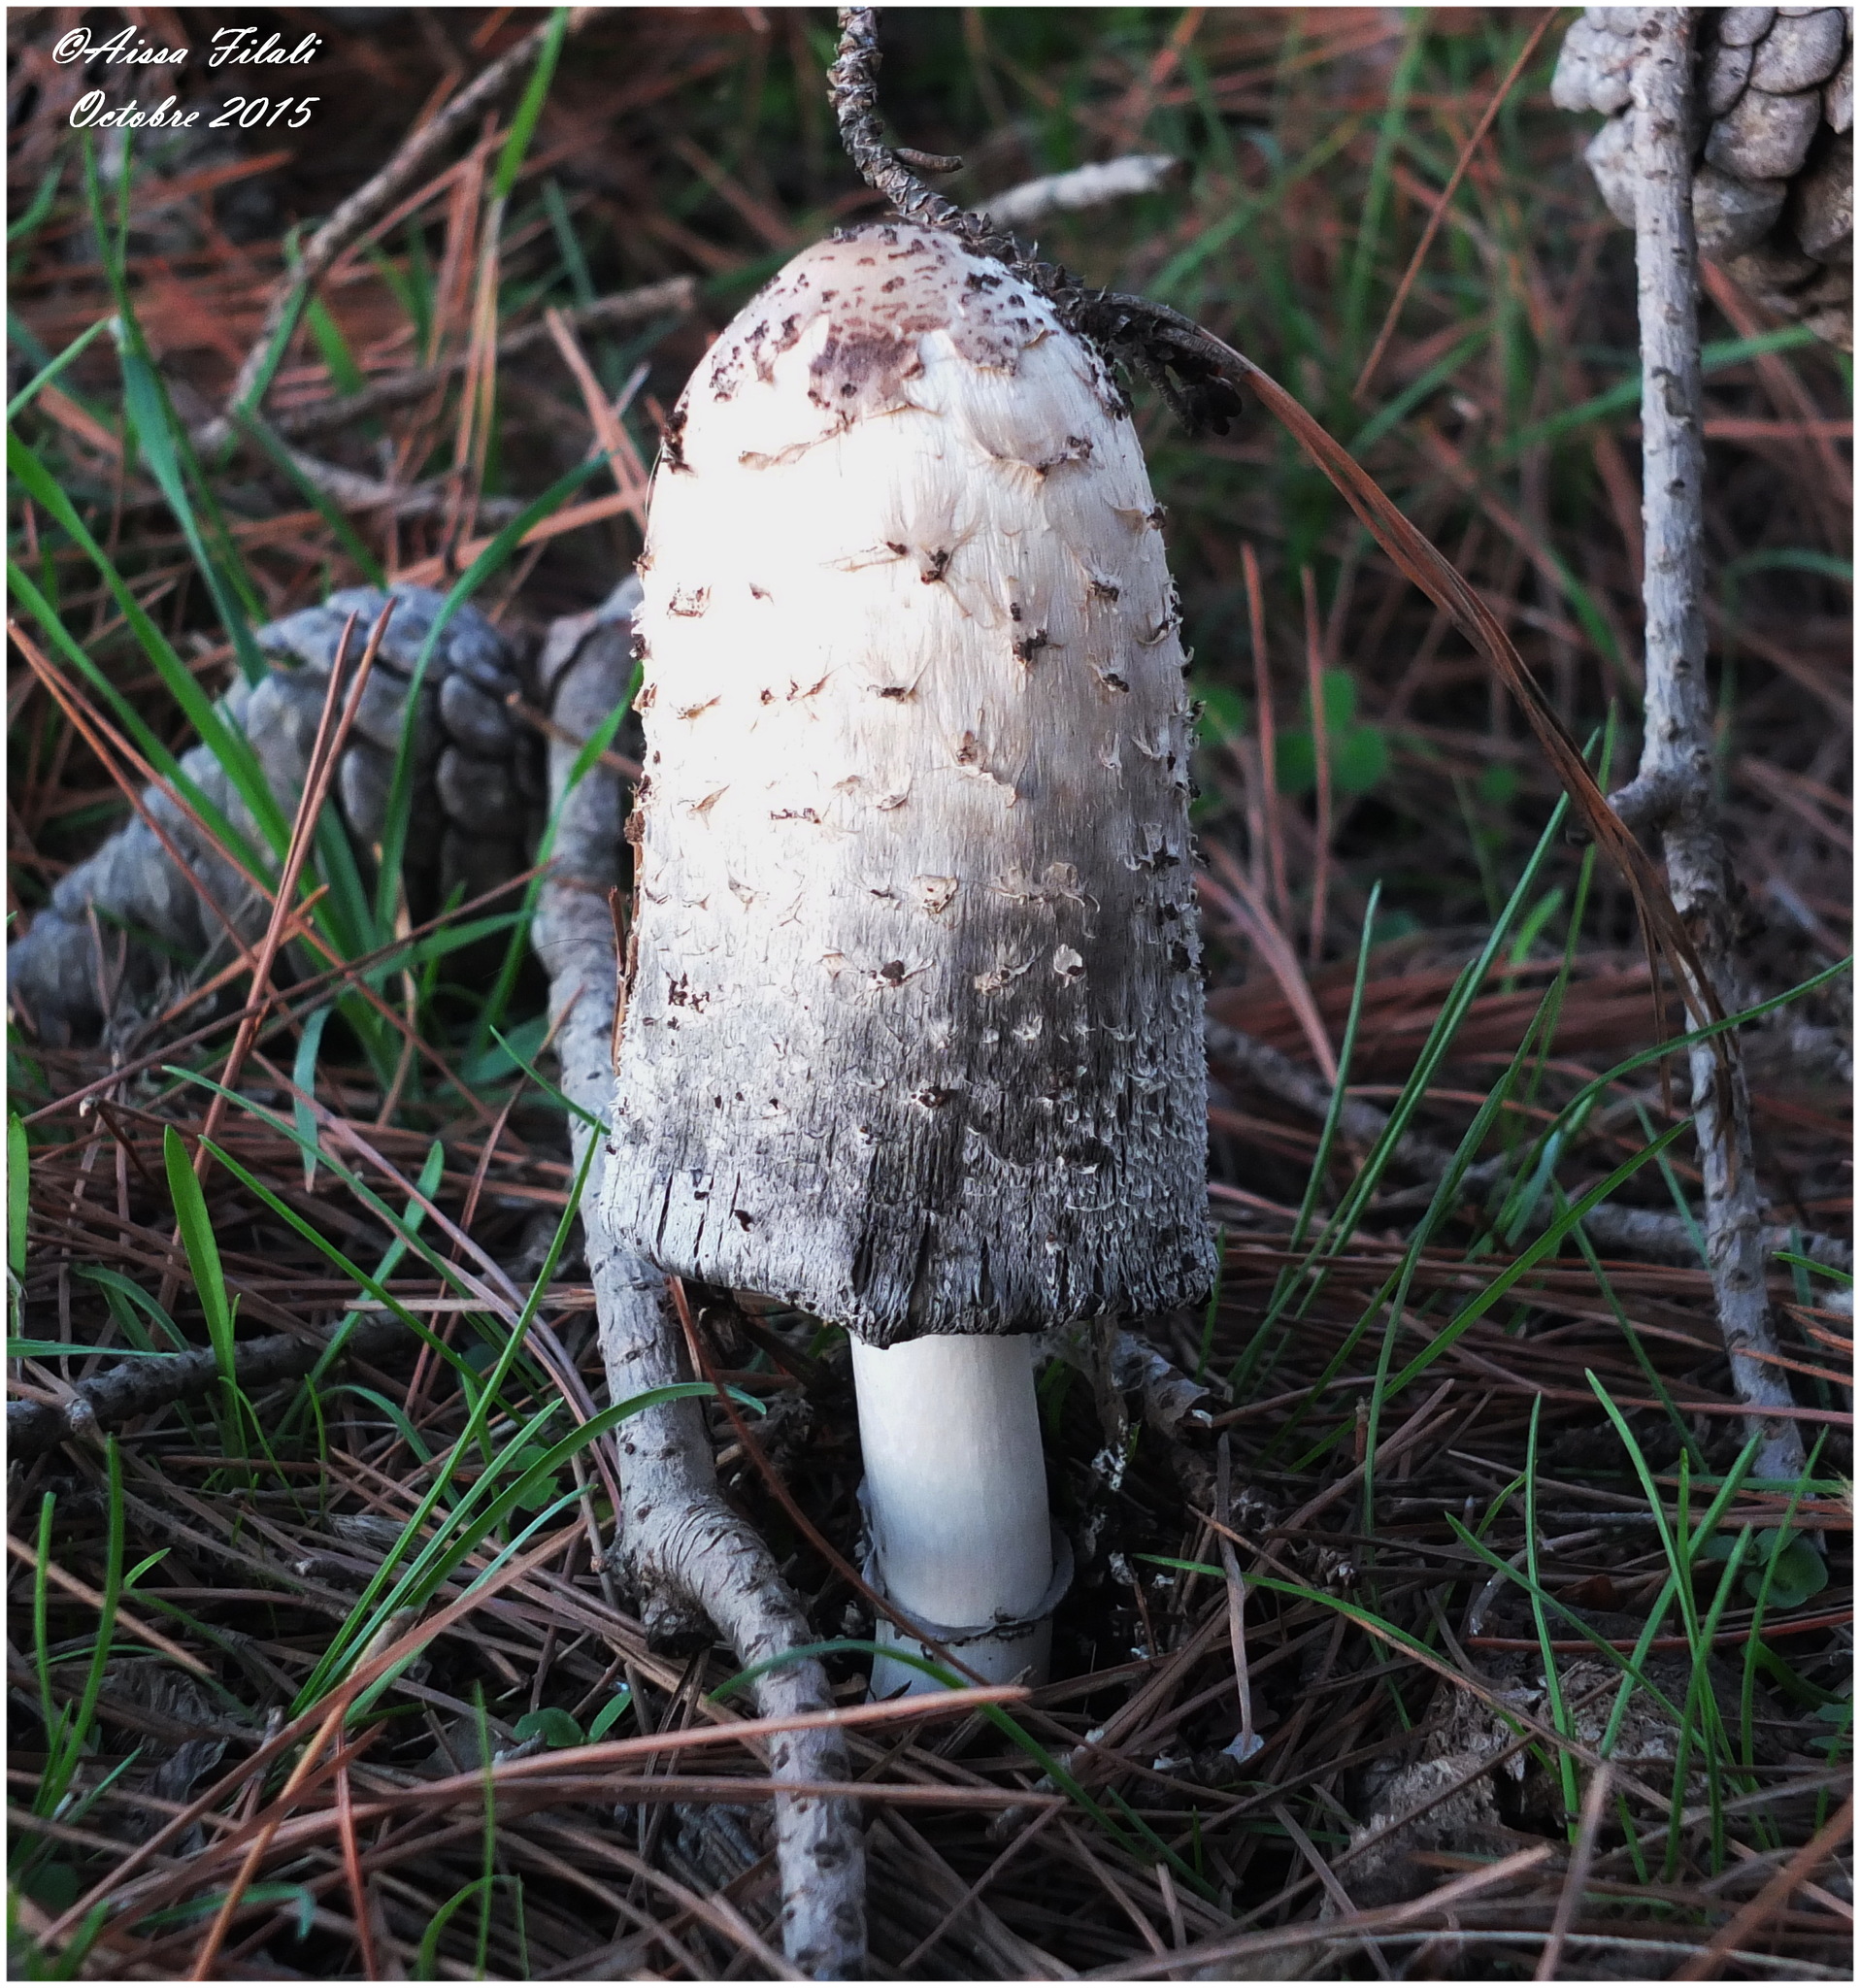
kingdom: Fungi
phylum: Basidiomycota
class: Agaricomycetes
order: Agaricales
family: Agaricaceae
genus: Coprinus
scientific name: Coprinus comatus
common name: Lawyer's wig
